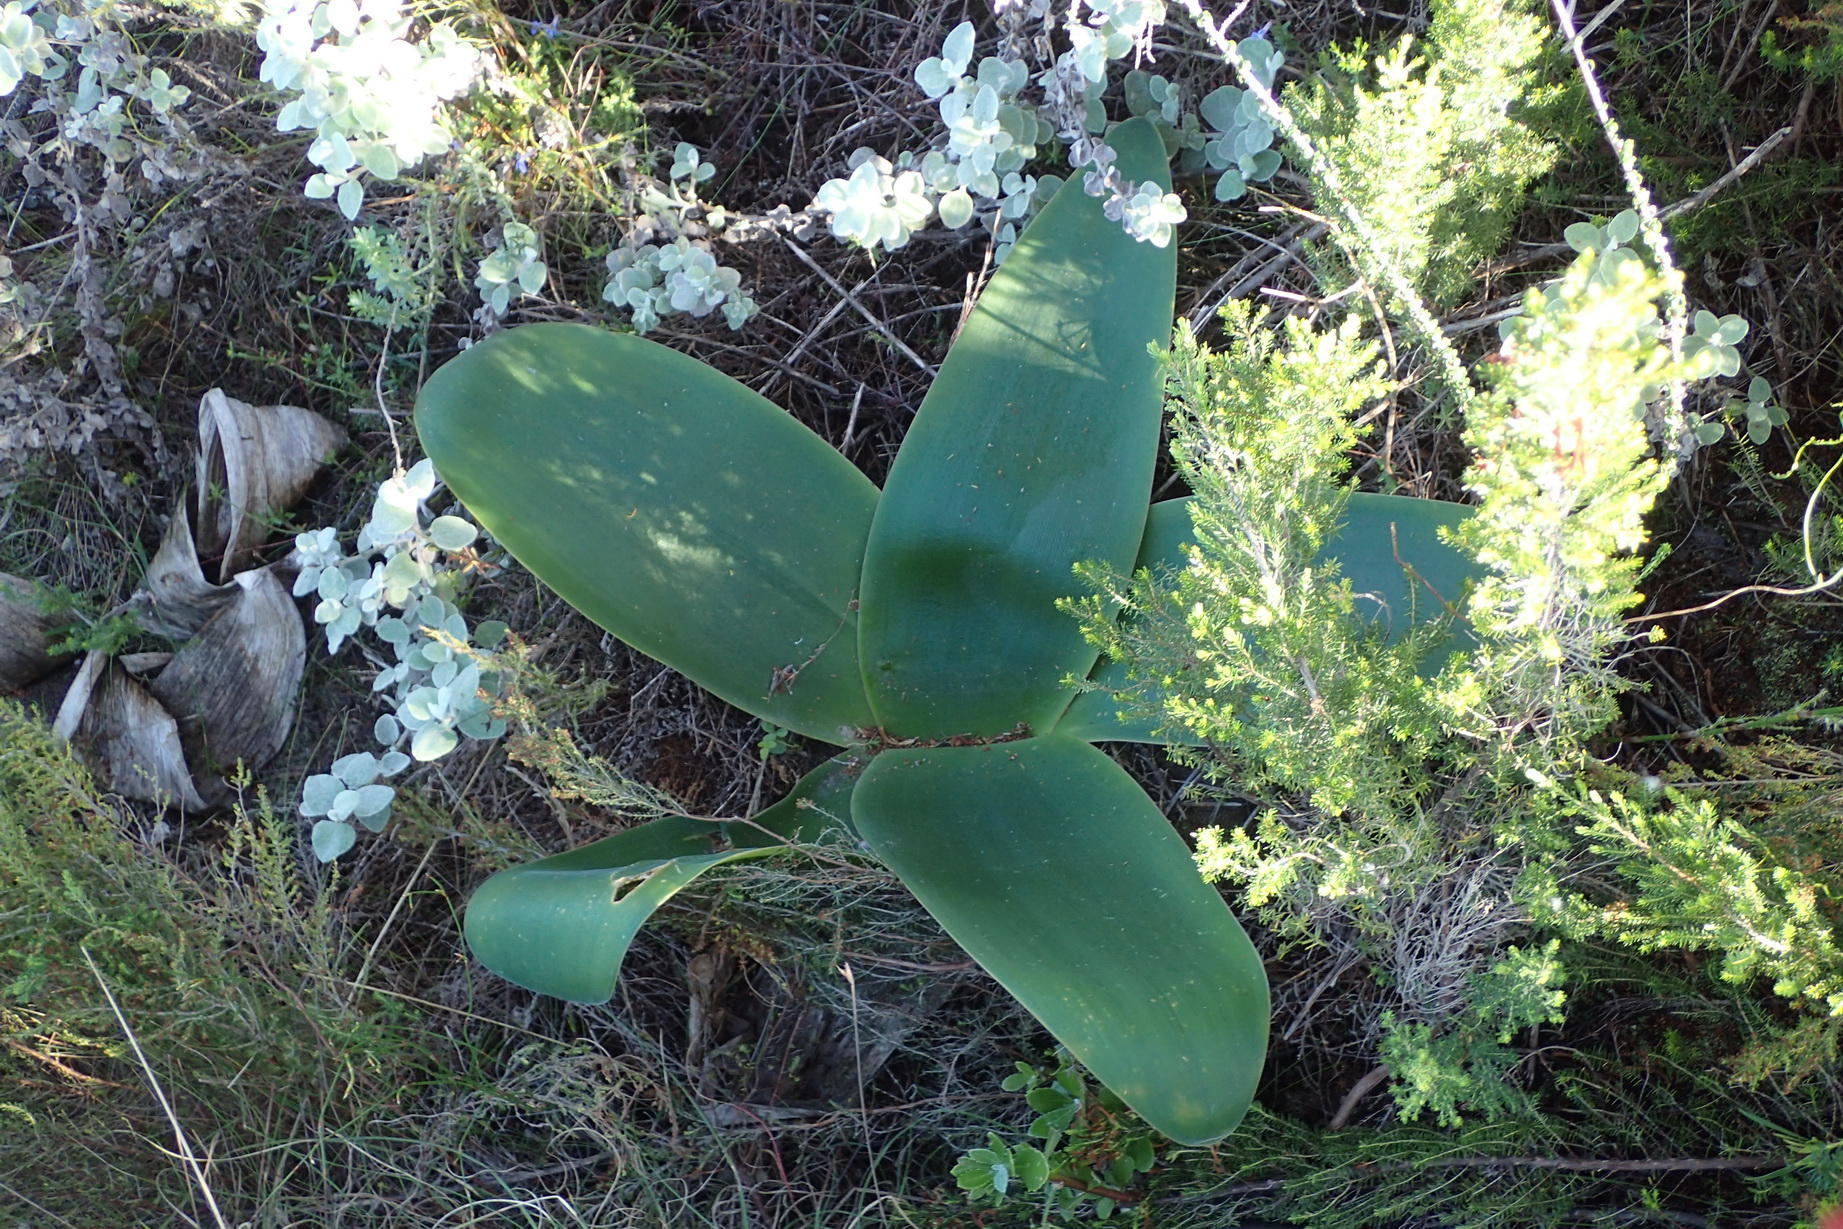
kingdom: Plantae
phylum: Tracheophyta
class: Liliopsida
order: Asparagales
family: Amaryllidaceae
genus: Brunsvigia
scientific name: Brunsvigia orientalis
